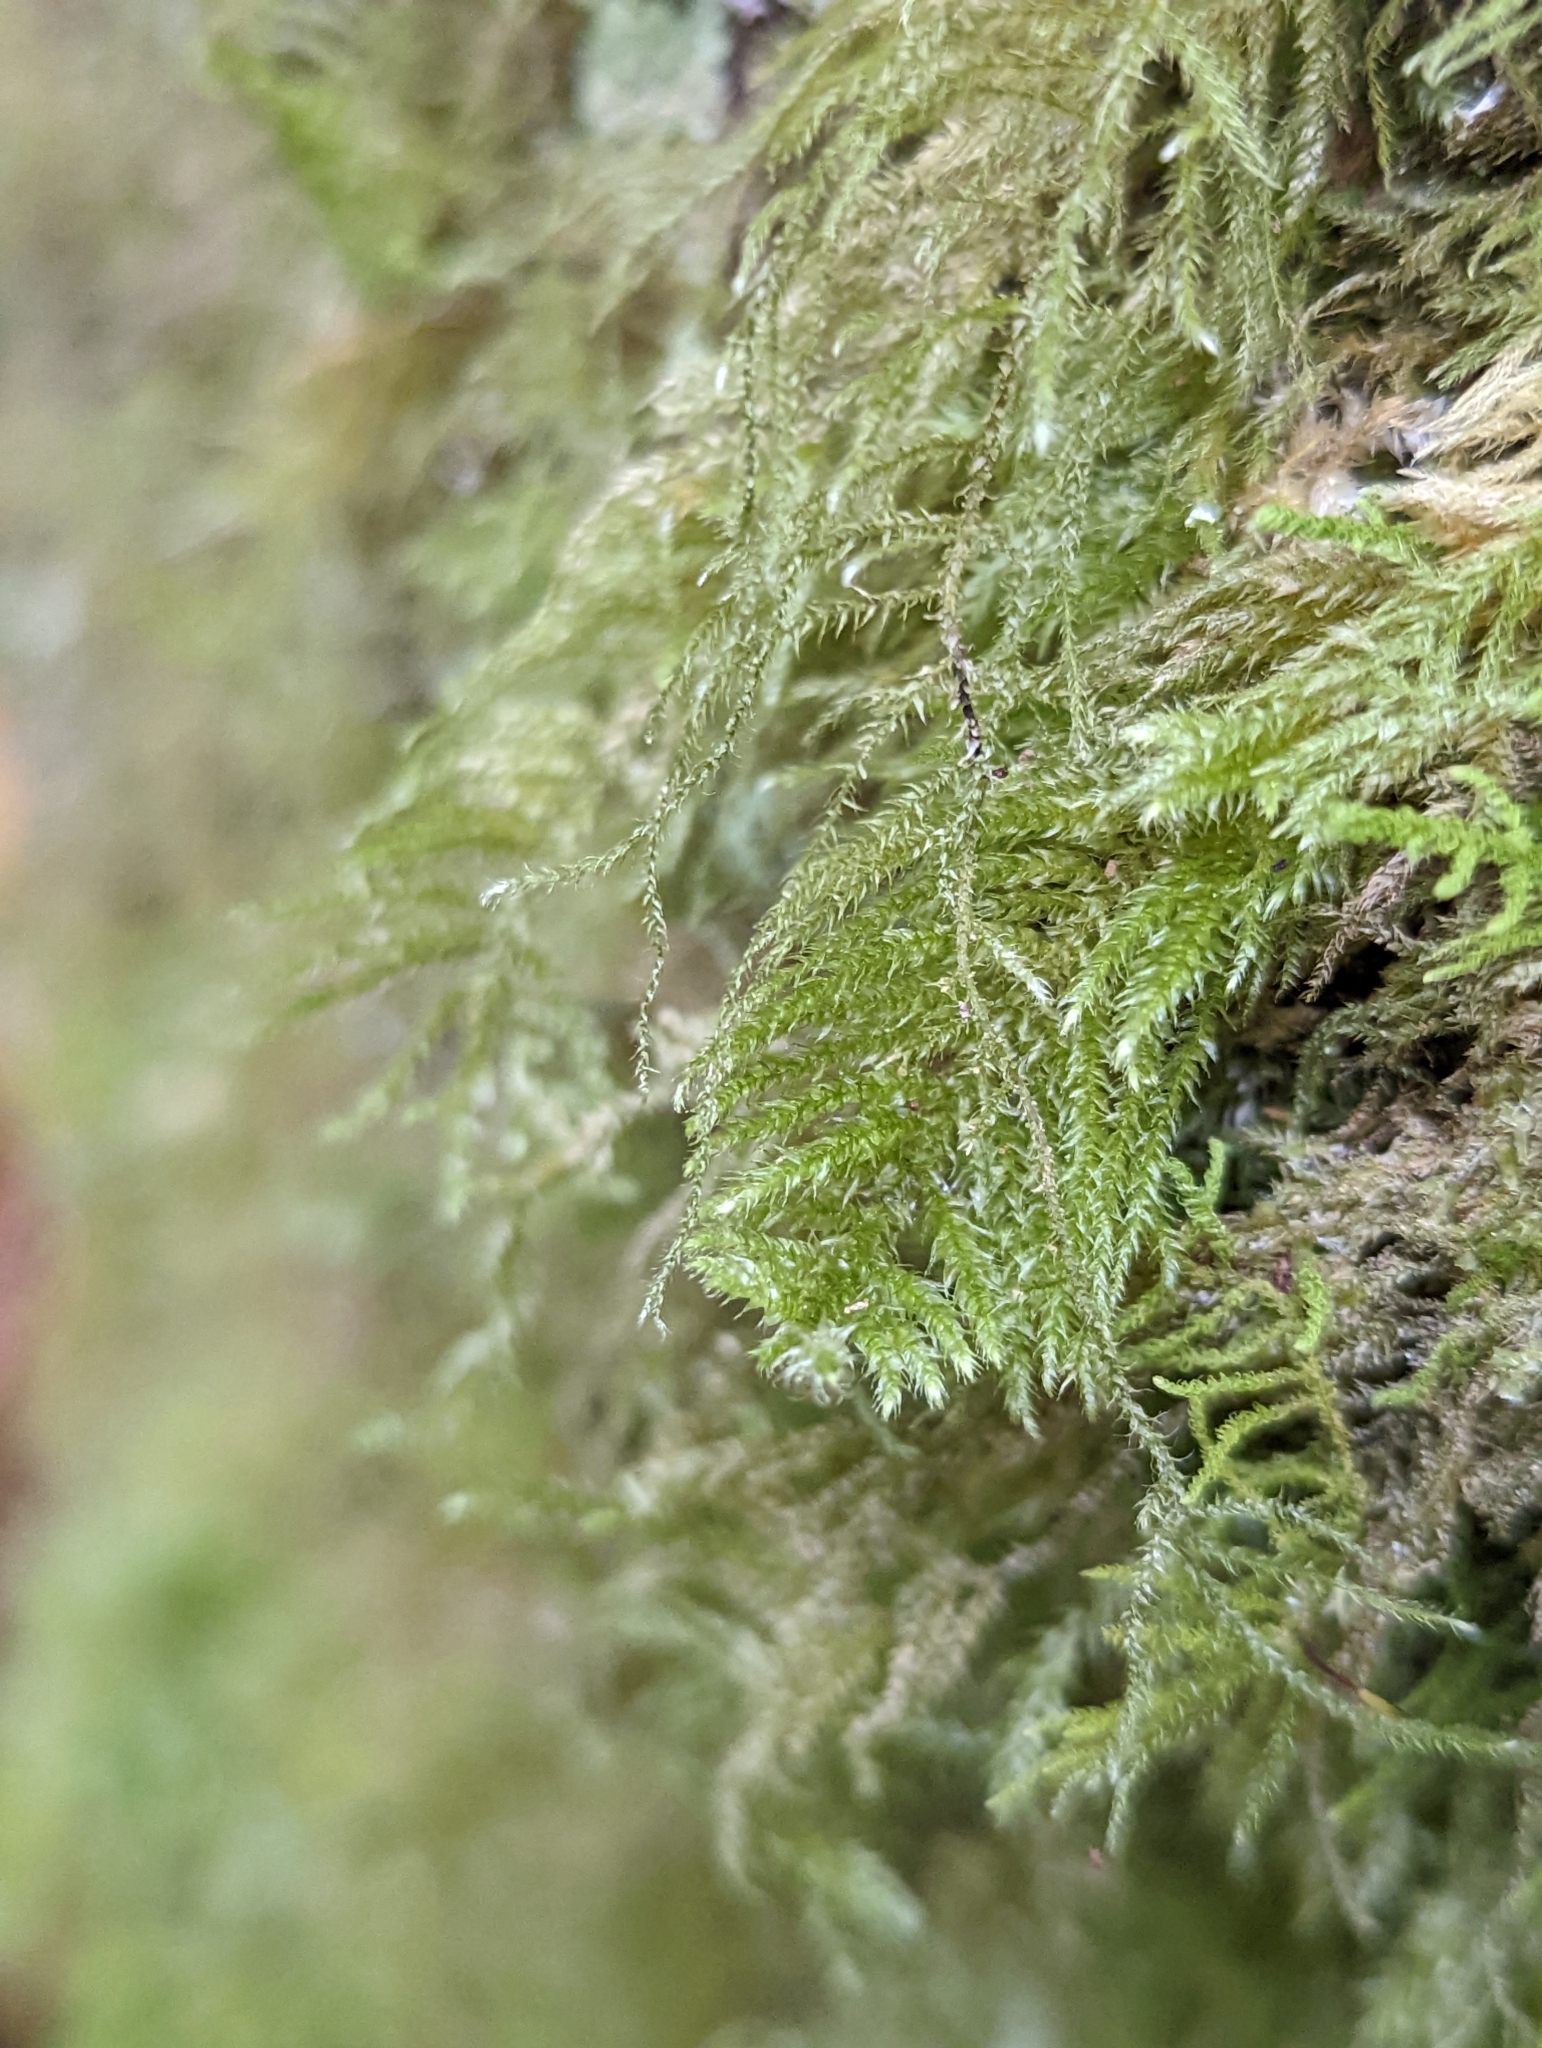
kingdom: Plantae
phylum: Bryophyta
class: Bryopsida
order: Hypnales
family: Brachytheciaceae
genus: Kindbergia
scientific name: Kindbergia praelonga
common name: Slender beaked moss
